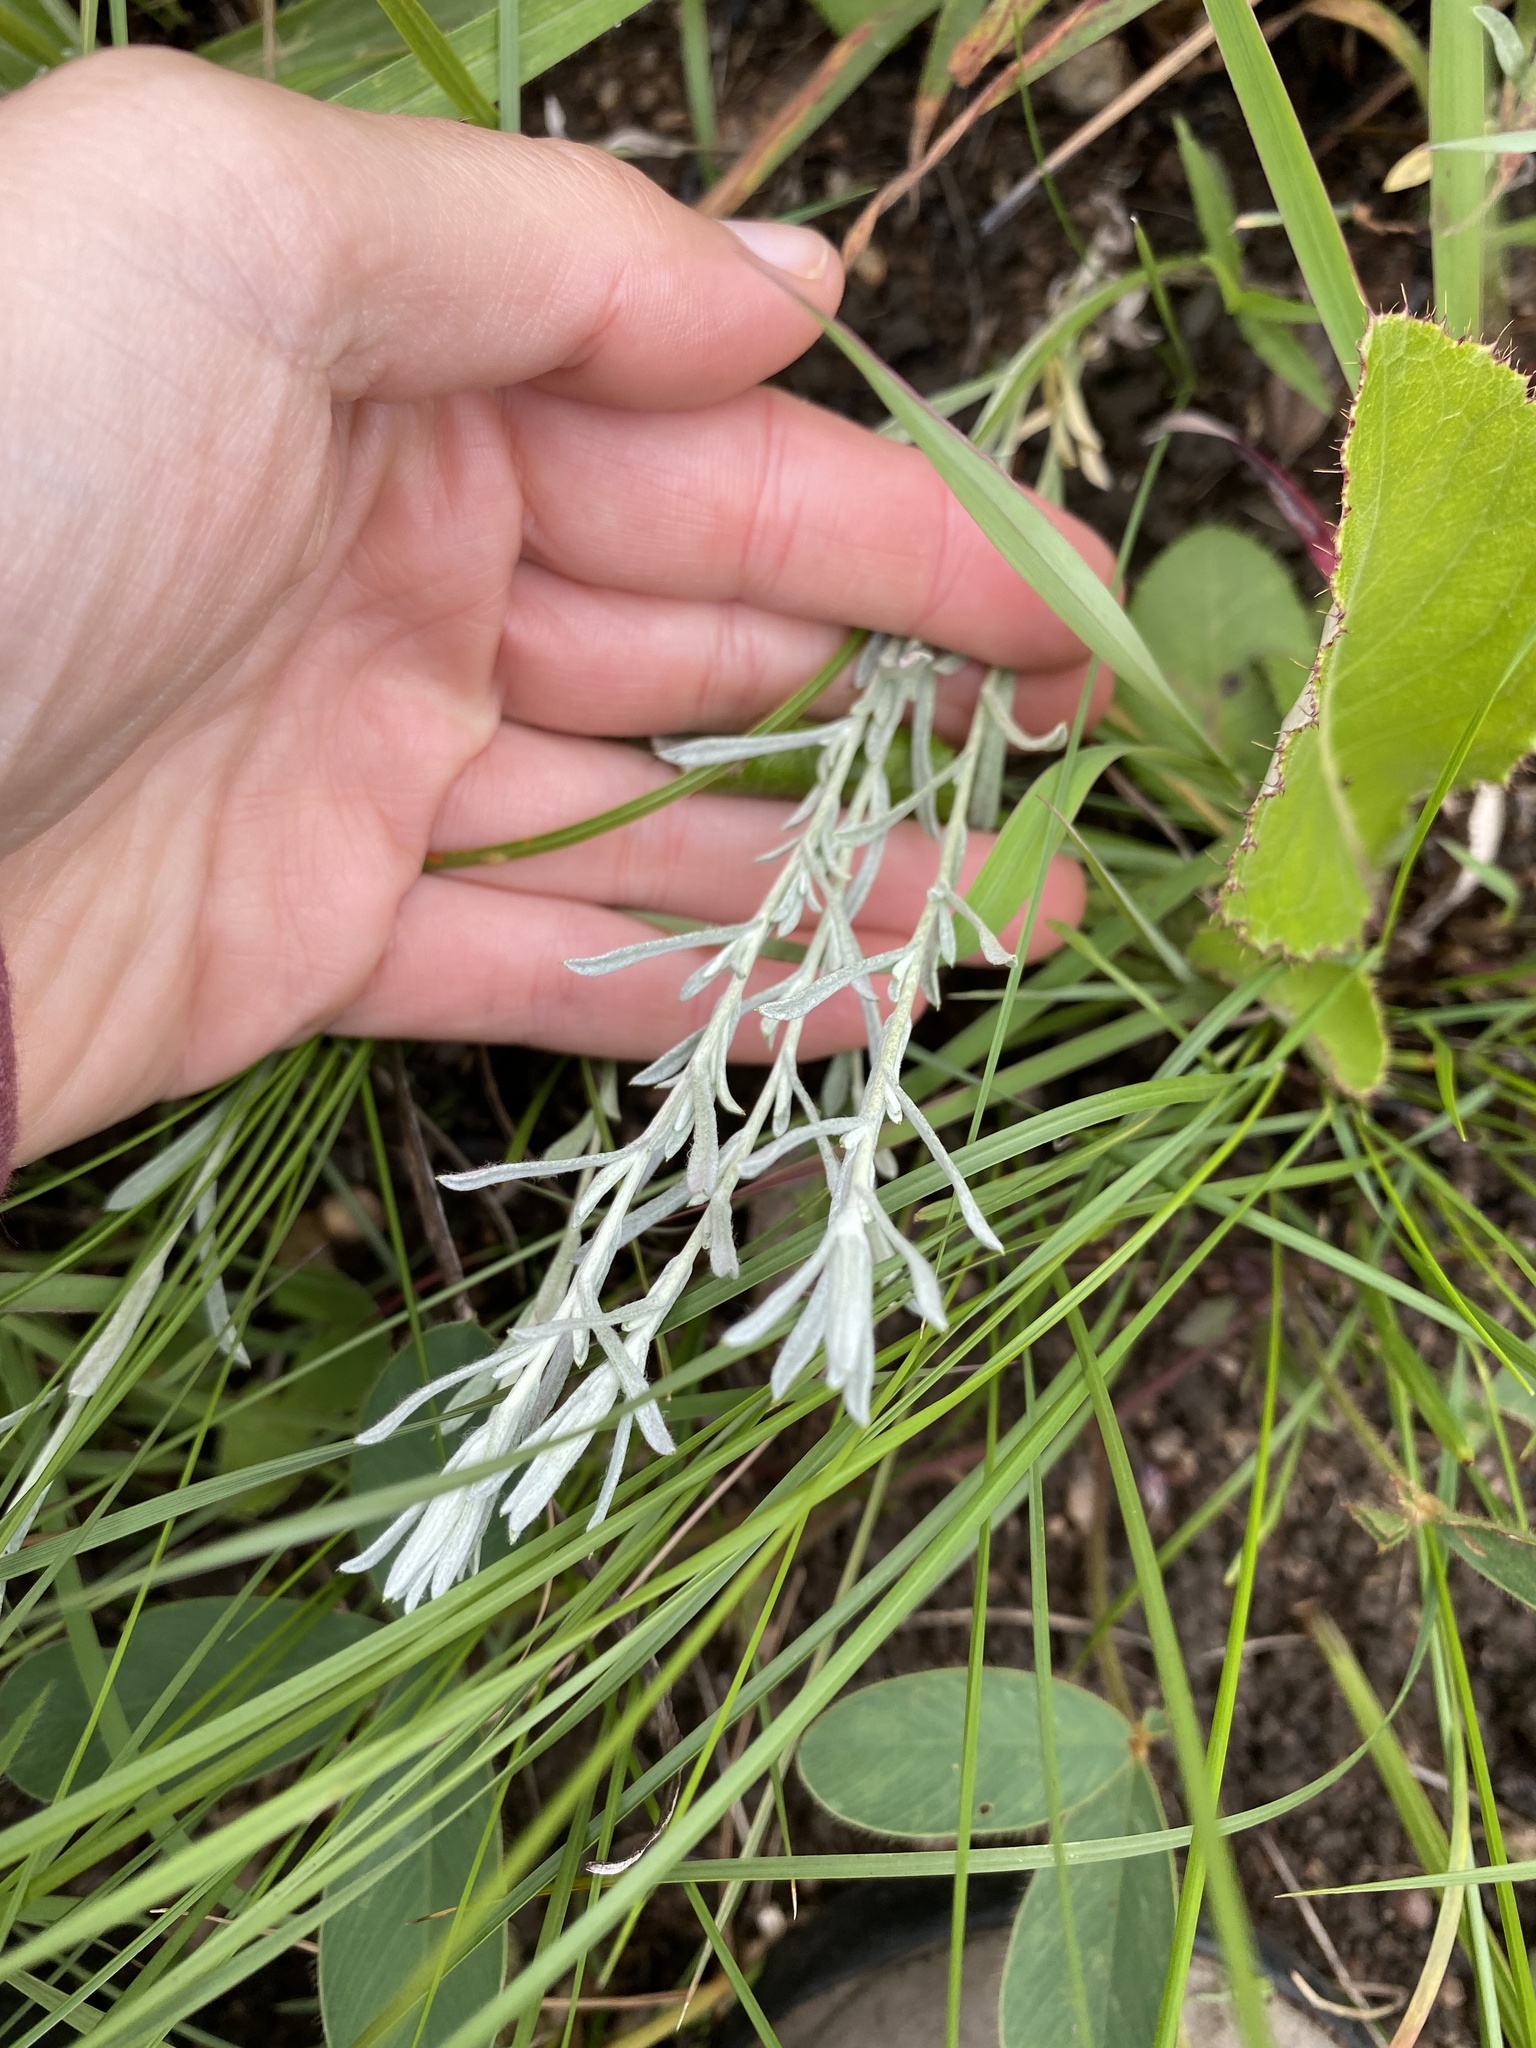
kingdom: Plantae
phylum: Tracheophyta
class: Magnoliopsida
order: Asterales
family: Asteraceae
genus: Helichrysum
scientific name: Helichrysum aureonitens
